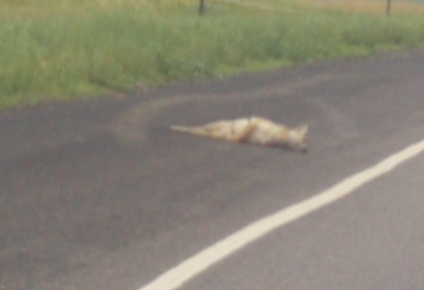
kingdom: Animalia
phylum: Chordata
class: Mammalia
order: Carnivora
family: Canidae
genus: Canis
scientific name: Canis latrans
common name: Coyote
